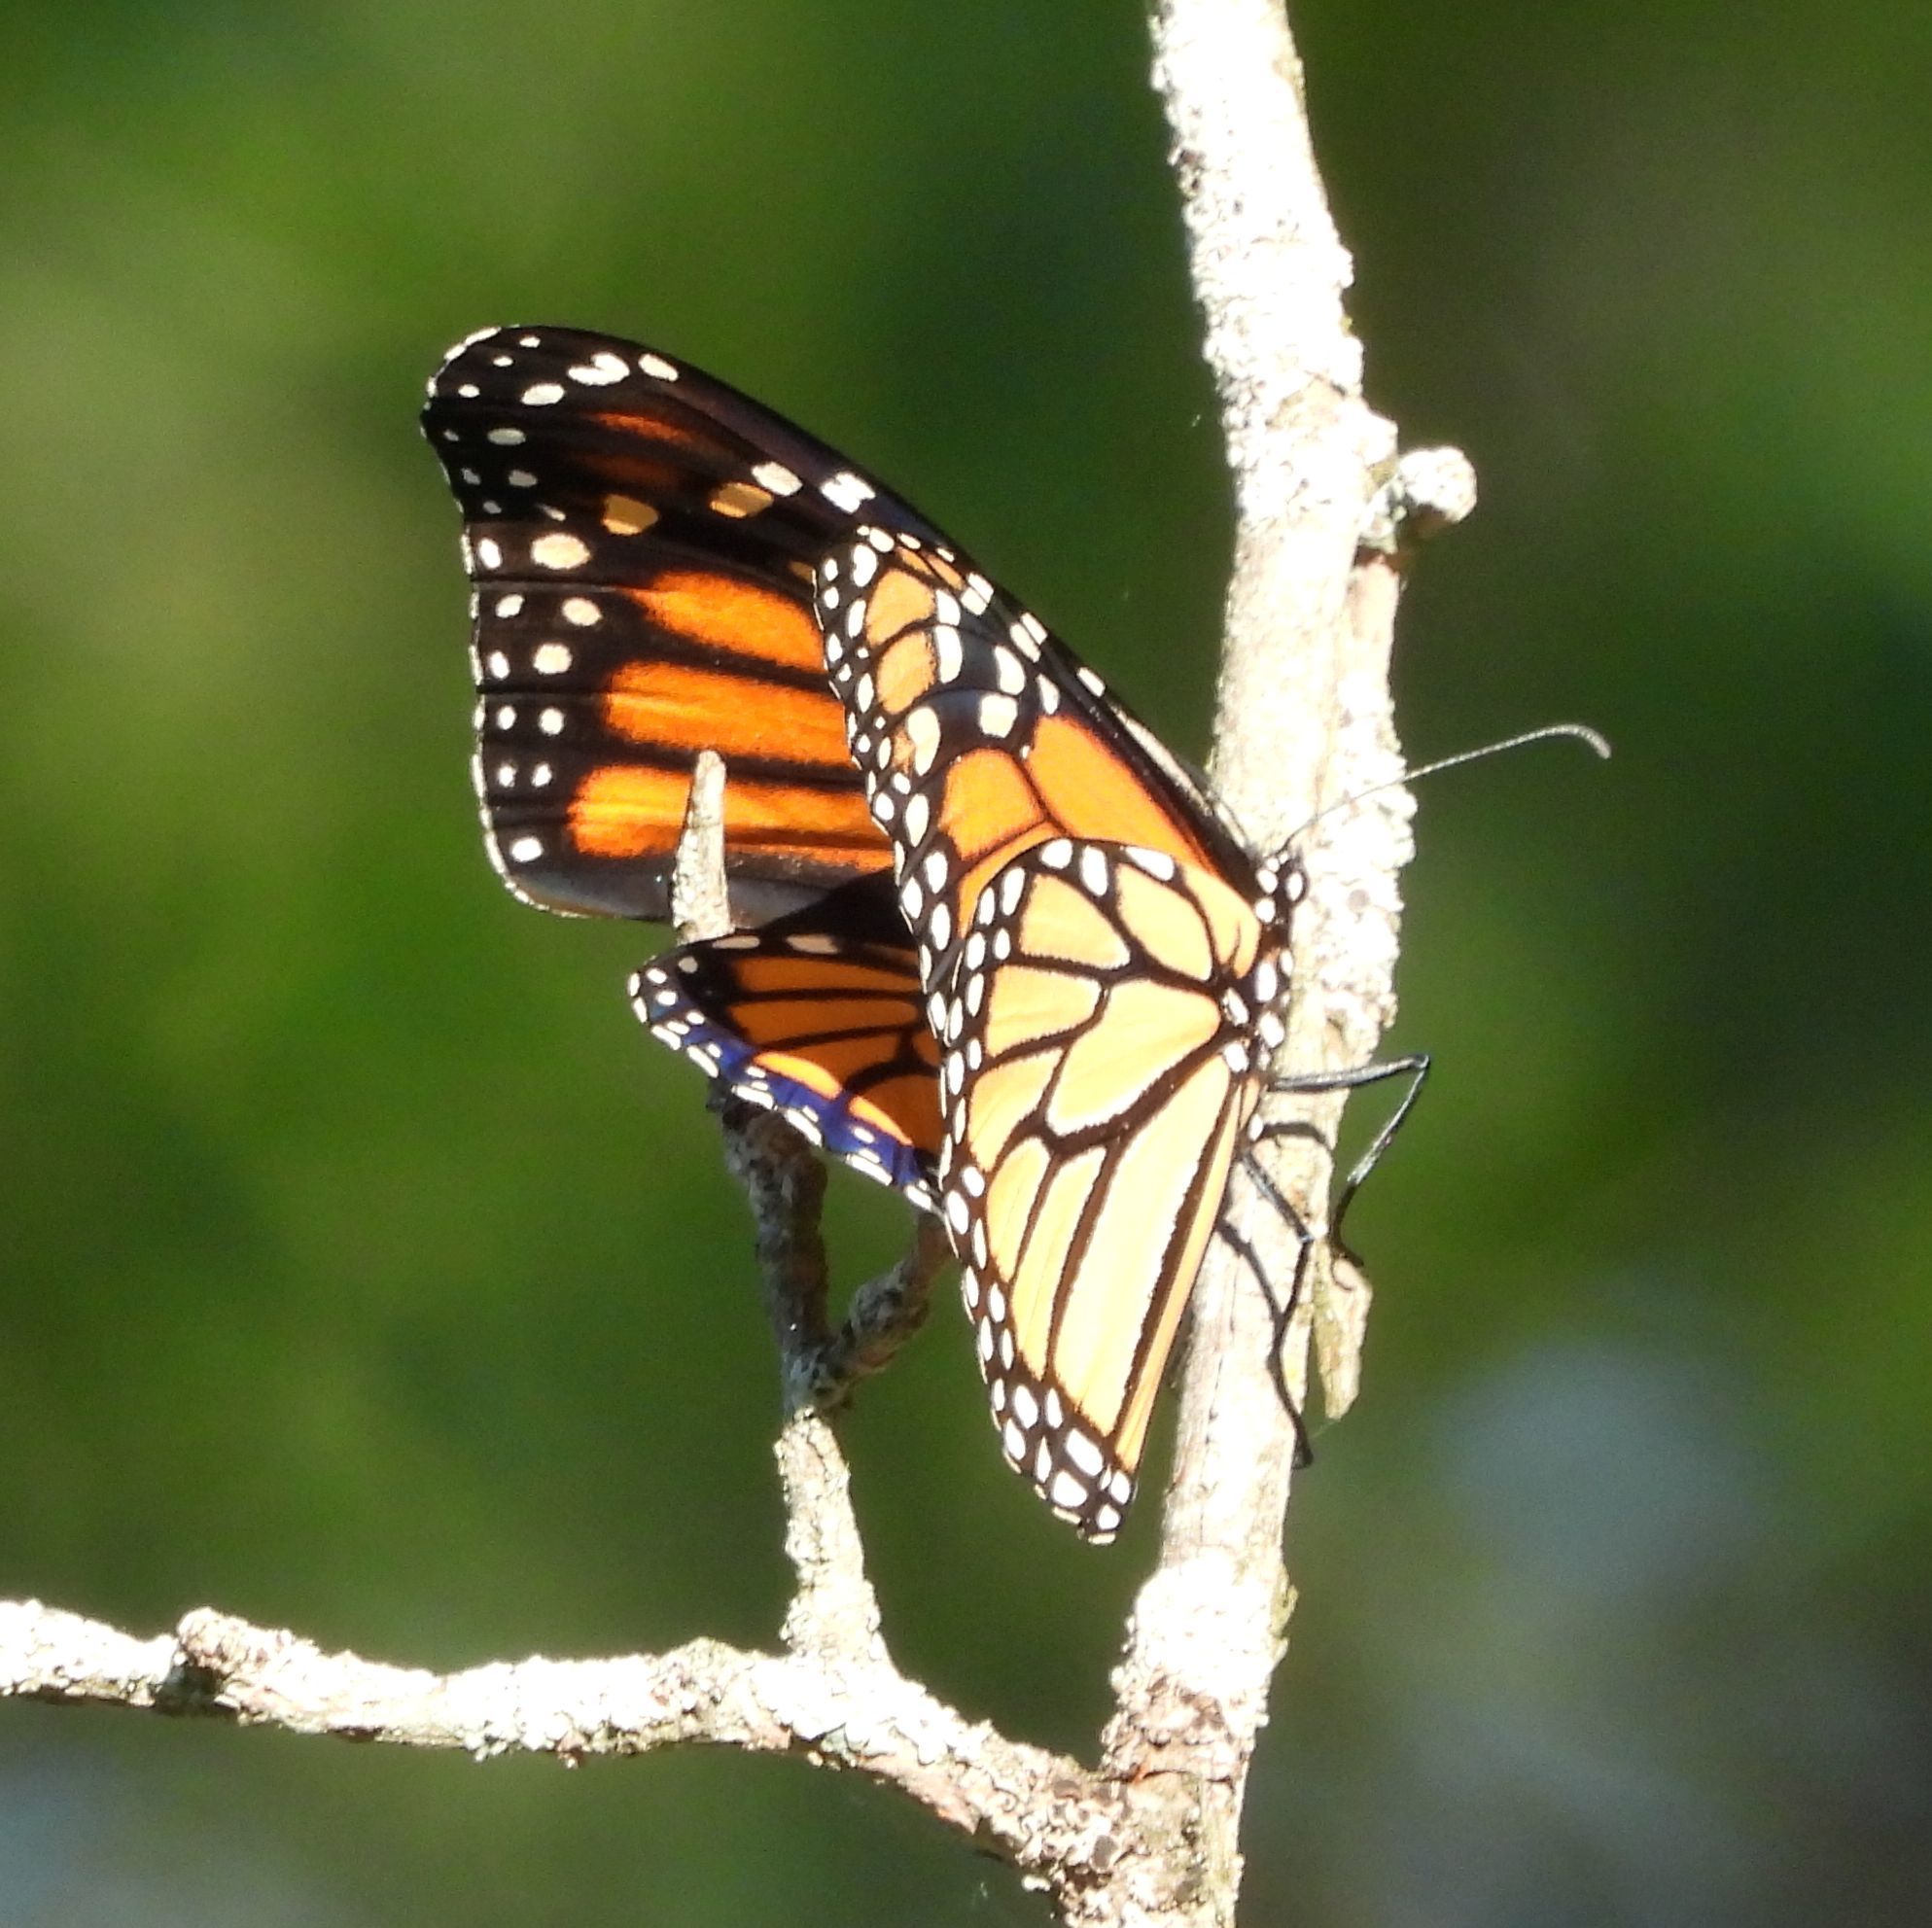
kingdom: Animalia
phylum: Arthropoda
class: Insecta
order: Lepidoptera
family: Nymphalidae
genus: Danaus
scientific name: Danaus plexippus
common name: Monarch
